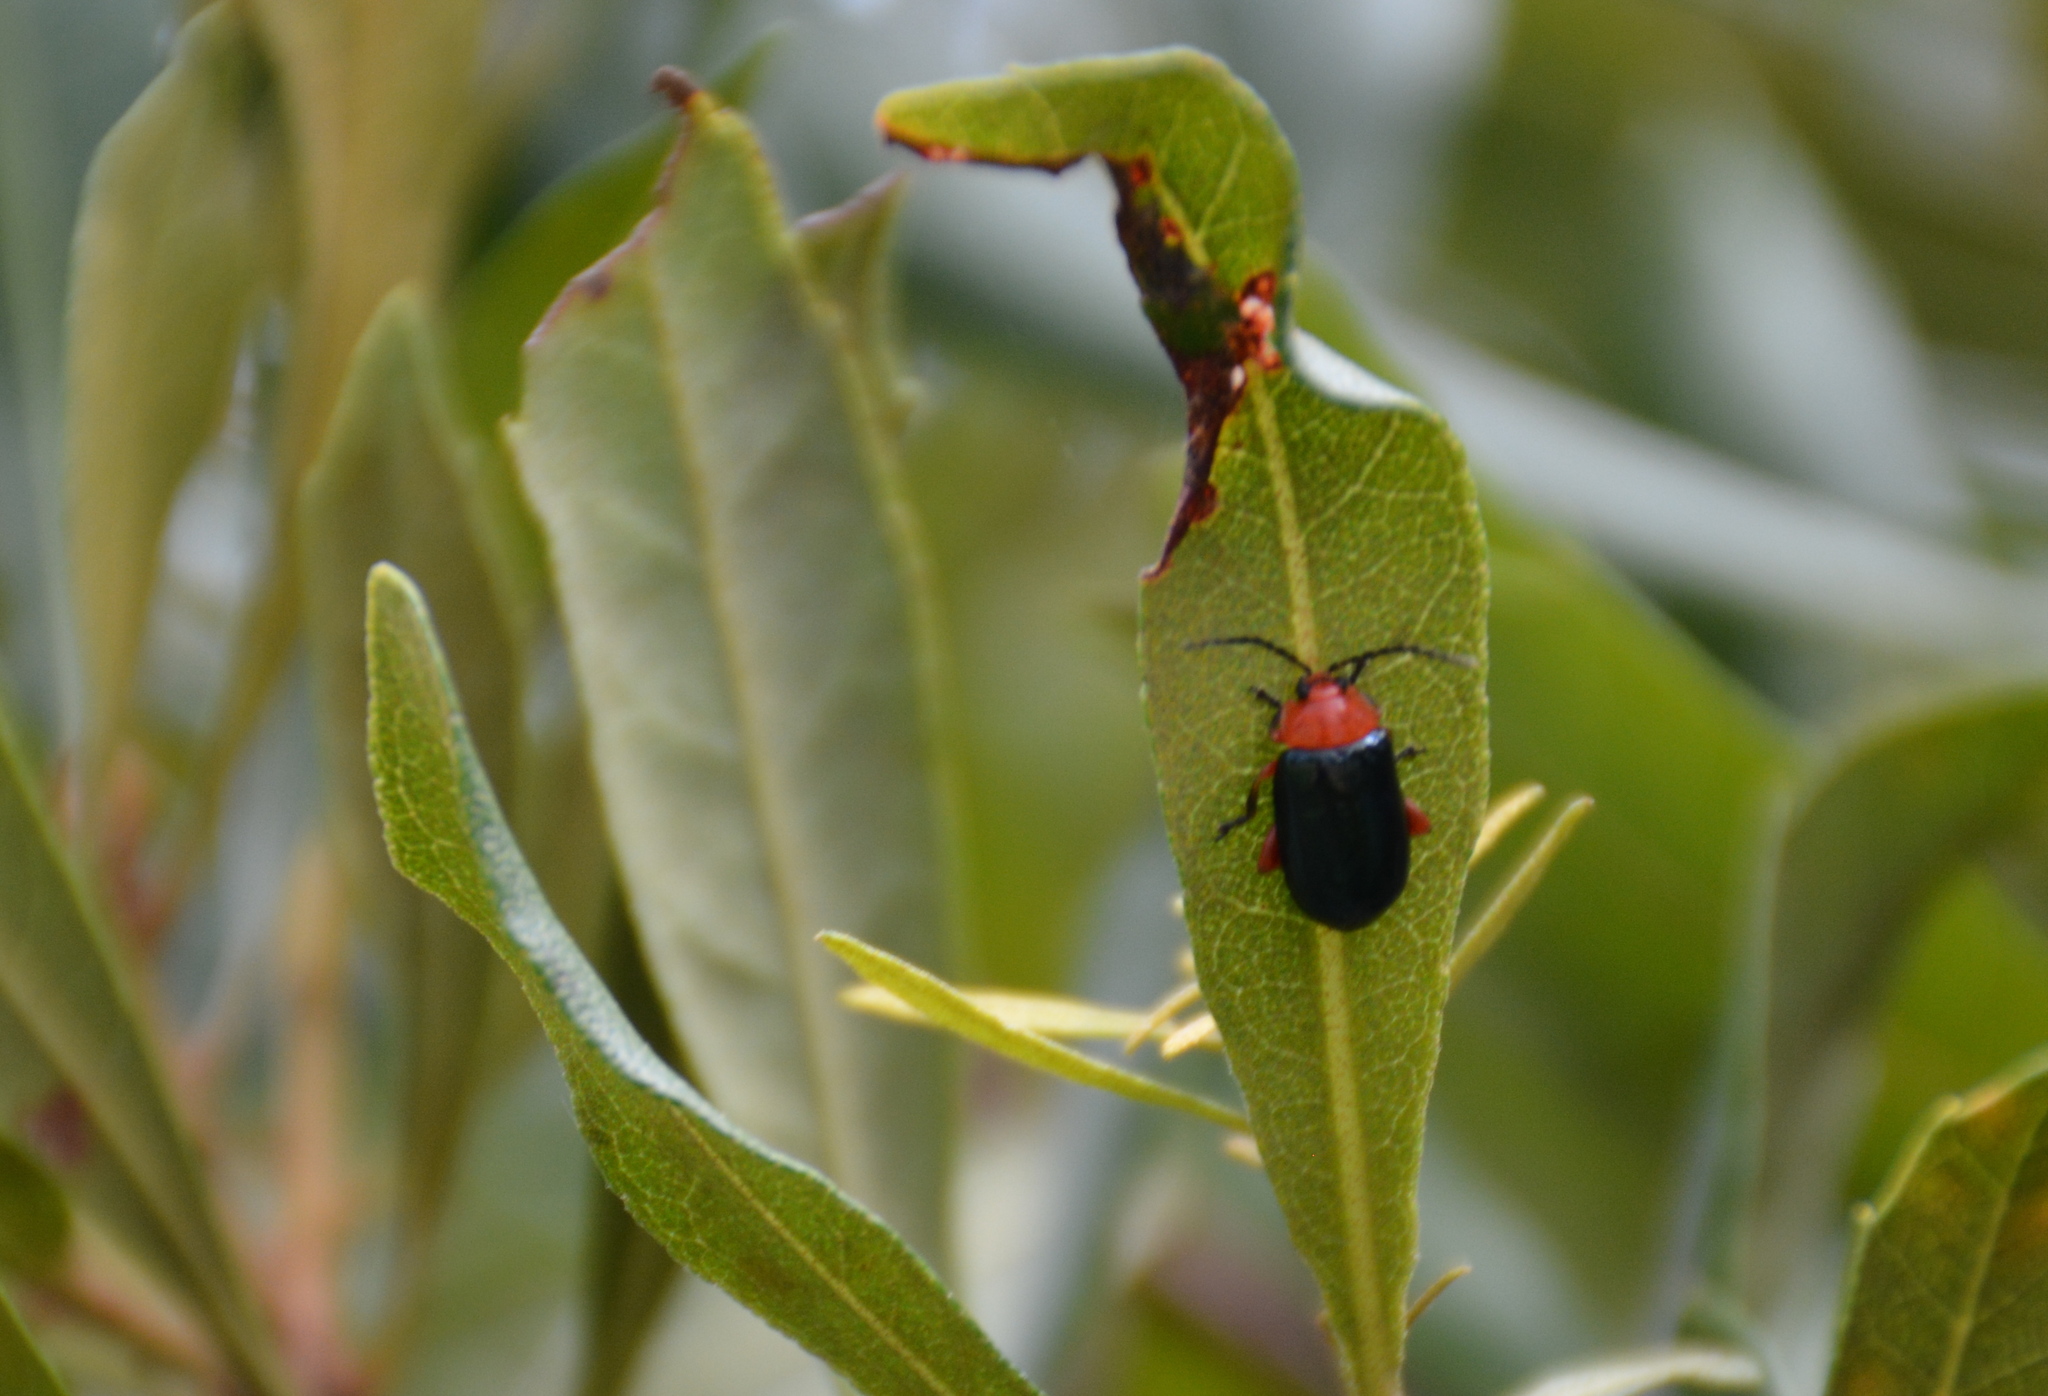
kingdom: Animalia
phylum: Arthropoda
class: Insecta
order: Coleoptera
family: Chrysomelidae
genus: Asphaera
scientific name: Asphaera lustrans
